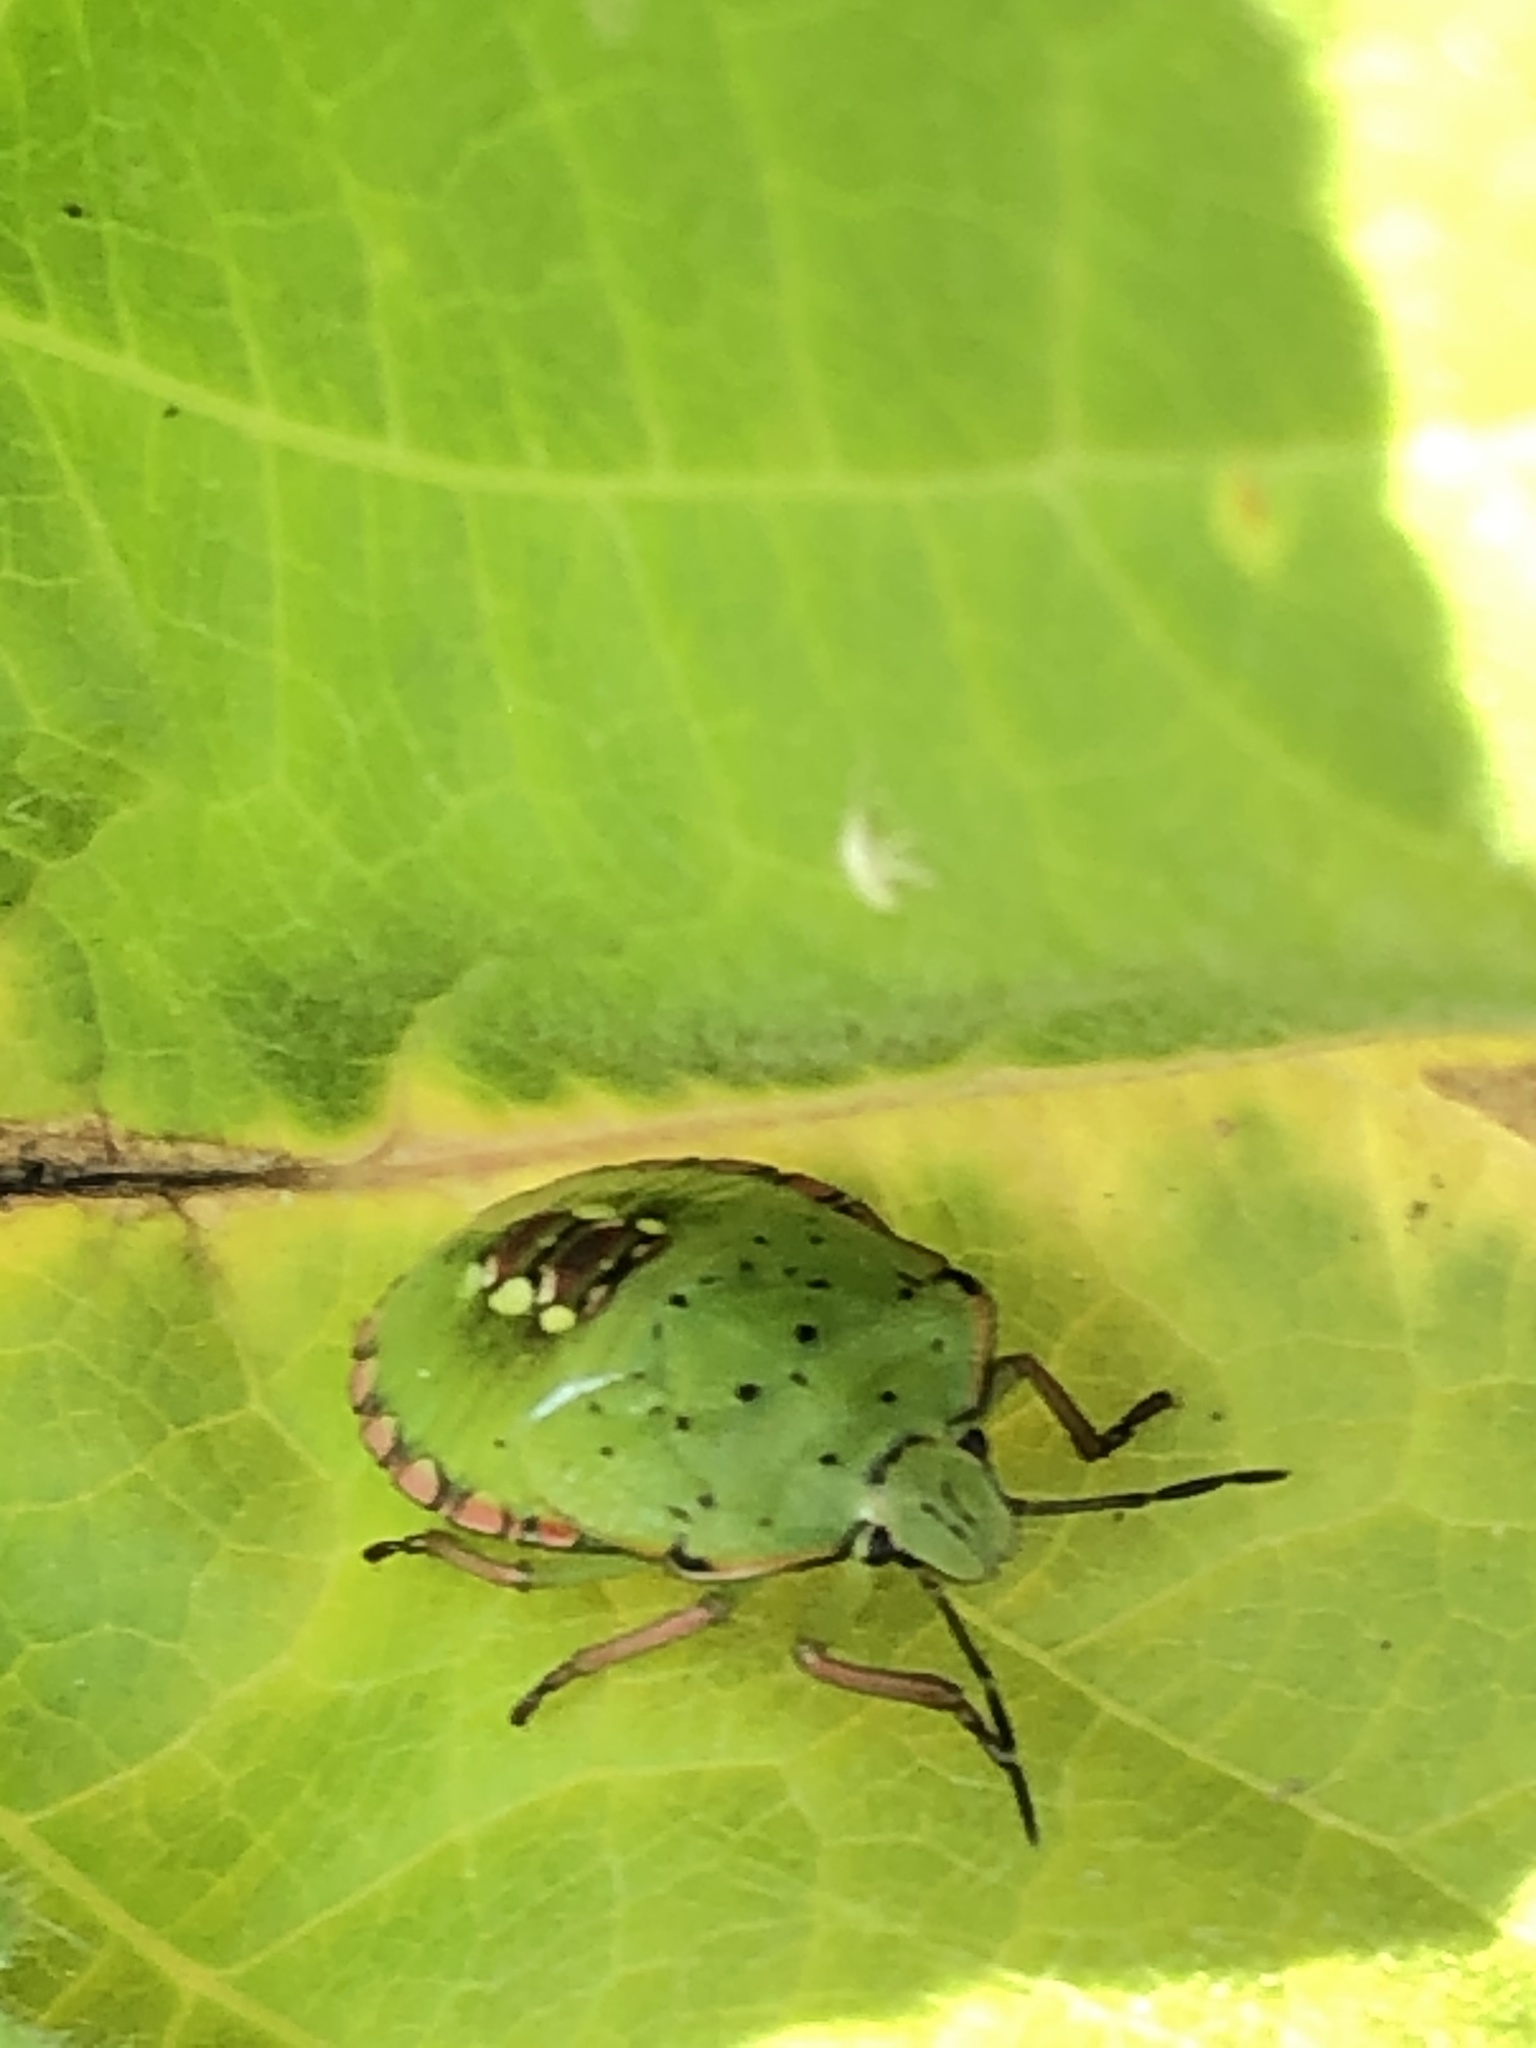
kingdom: Animalia
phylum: Arthropoda
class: Insecta
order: Hemiptera
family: Pentatomidae
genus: Nezara
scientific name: Nezara viridula
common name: Southern green stink bug
